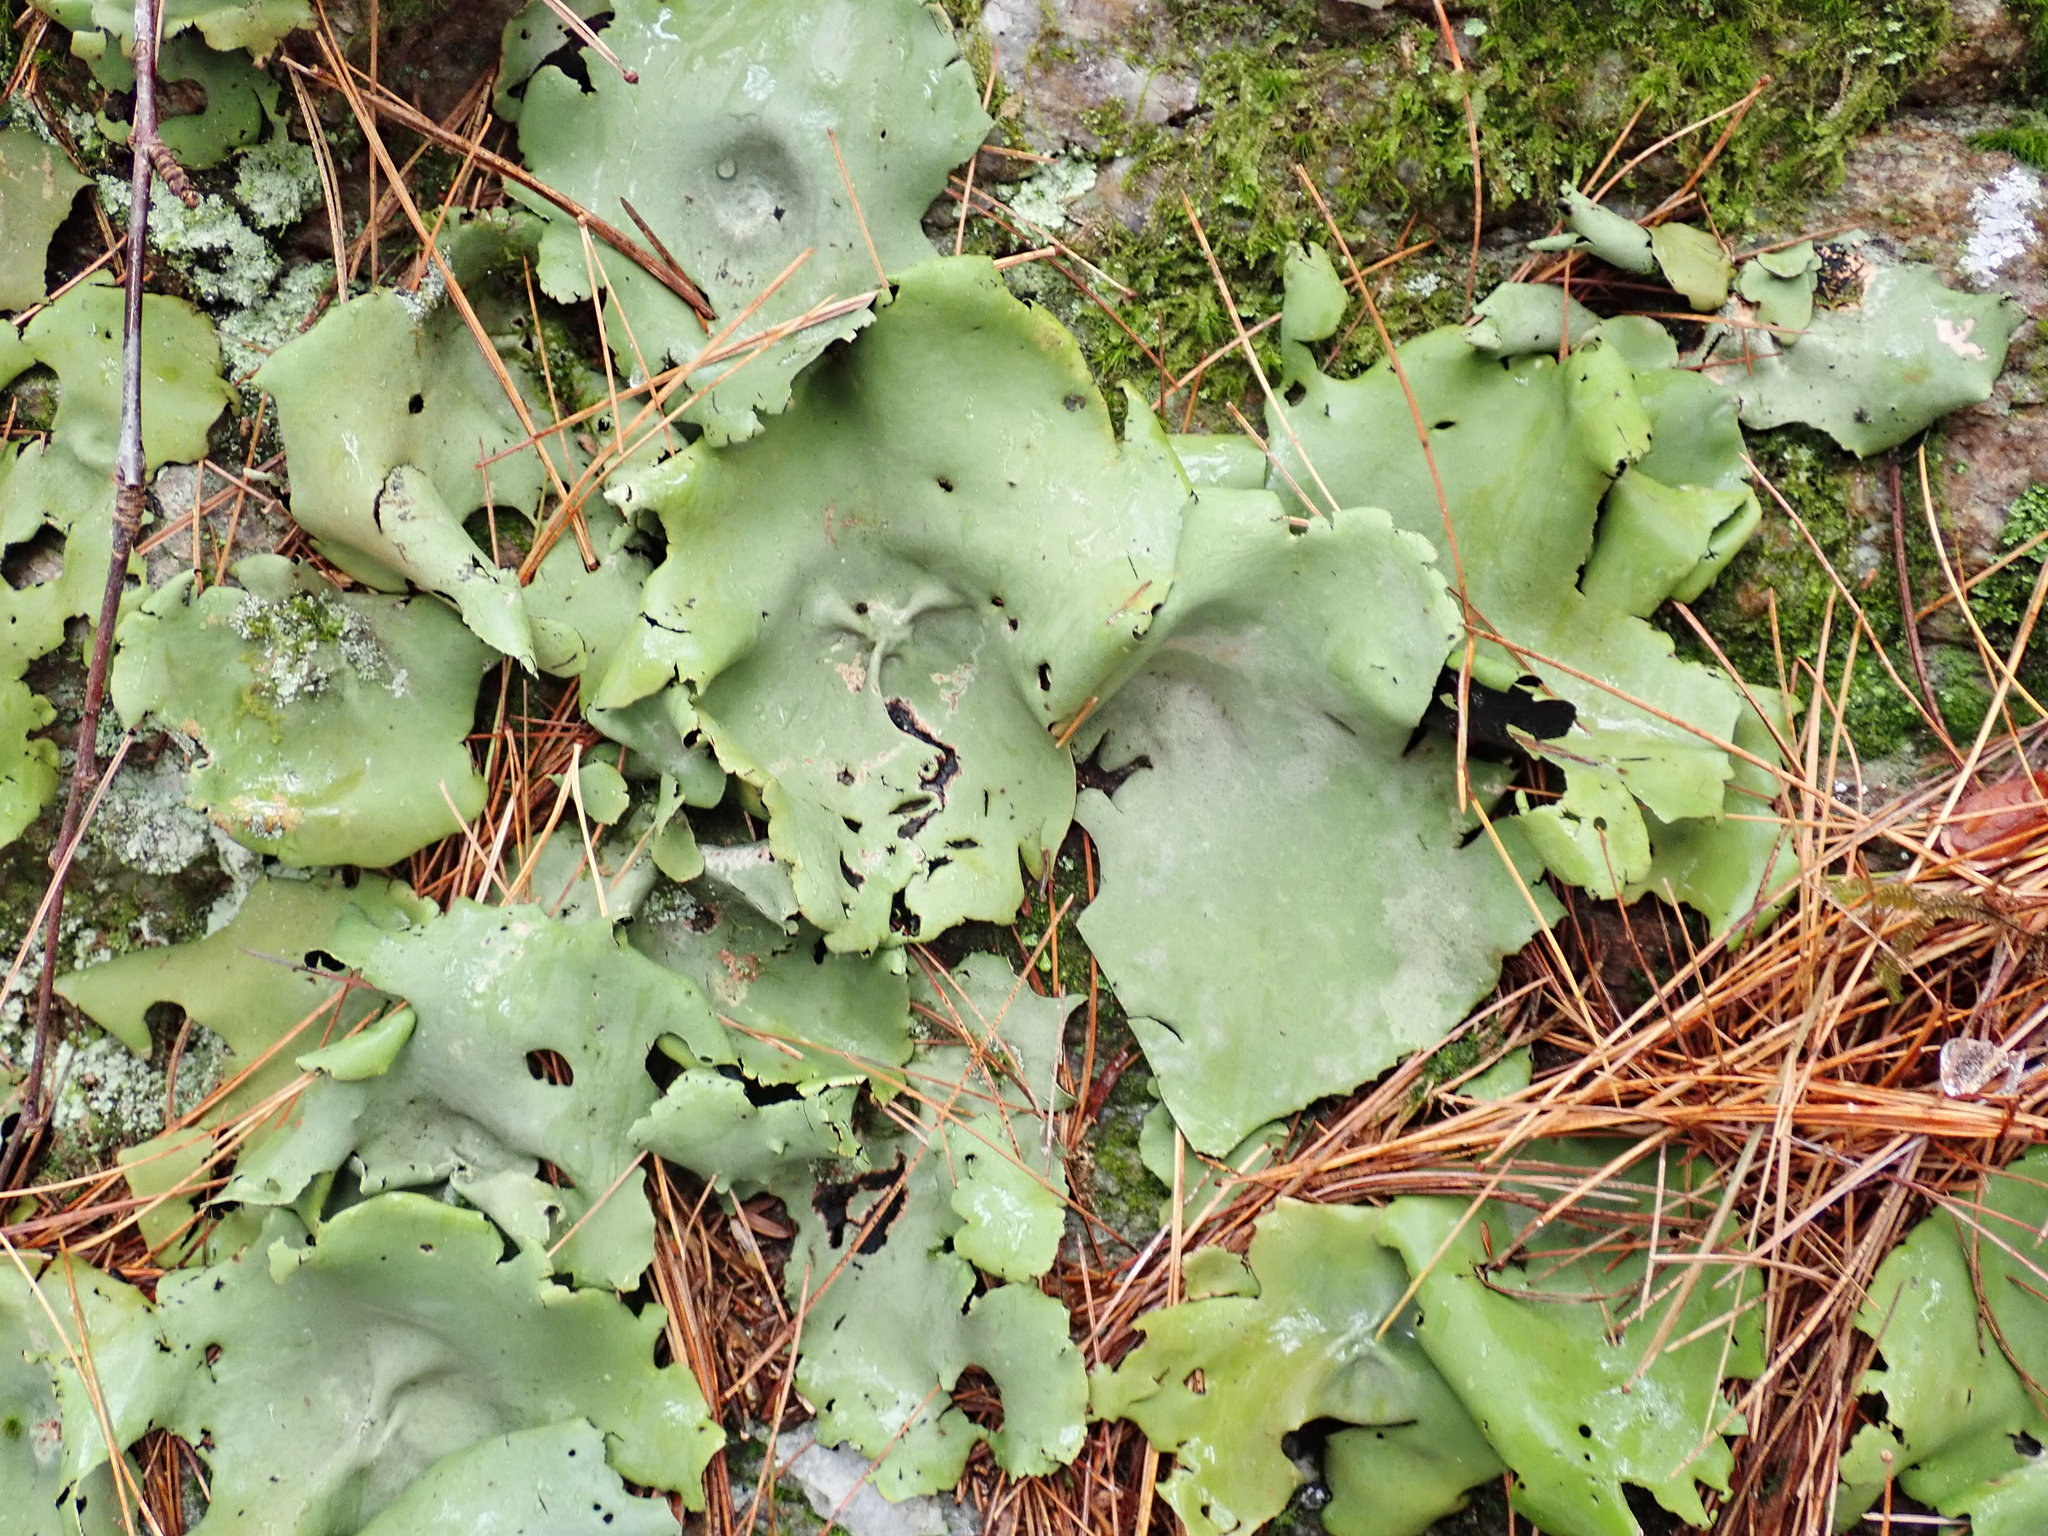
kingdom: Fungi
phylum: Ascomycota
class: Lecanoromycetes
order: Umbilicariales
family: Umbilicariaceae
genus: Umbilicaria
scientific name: Umbilicaria mammulata
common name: Smooth rock tripe
